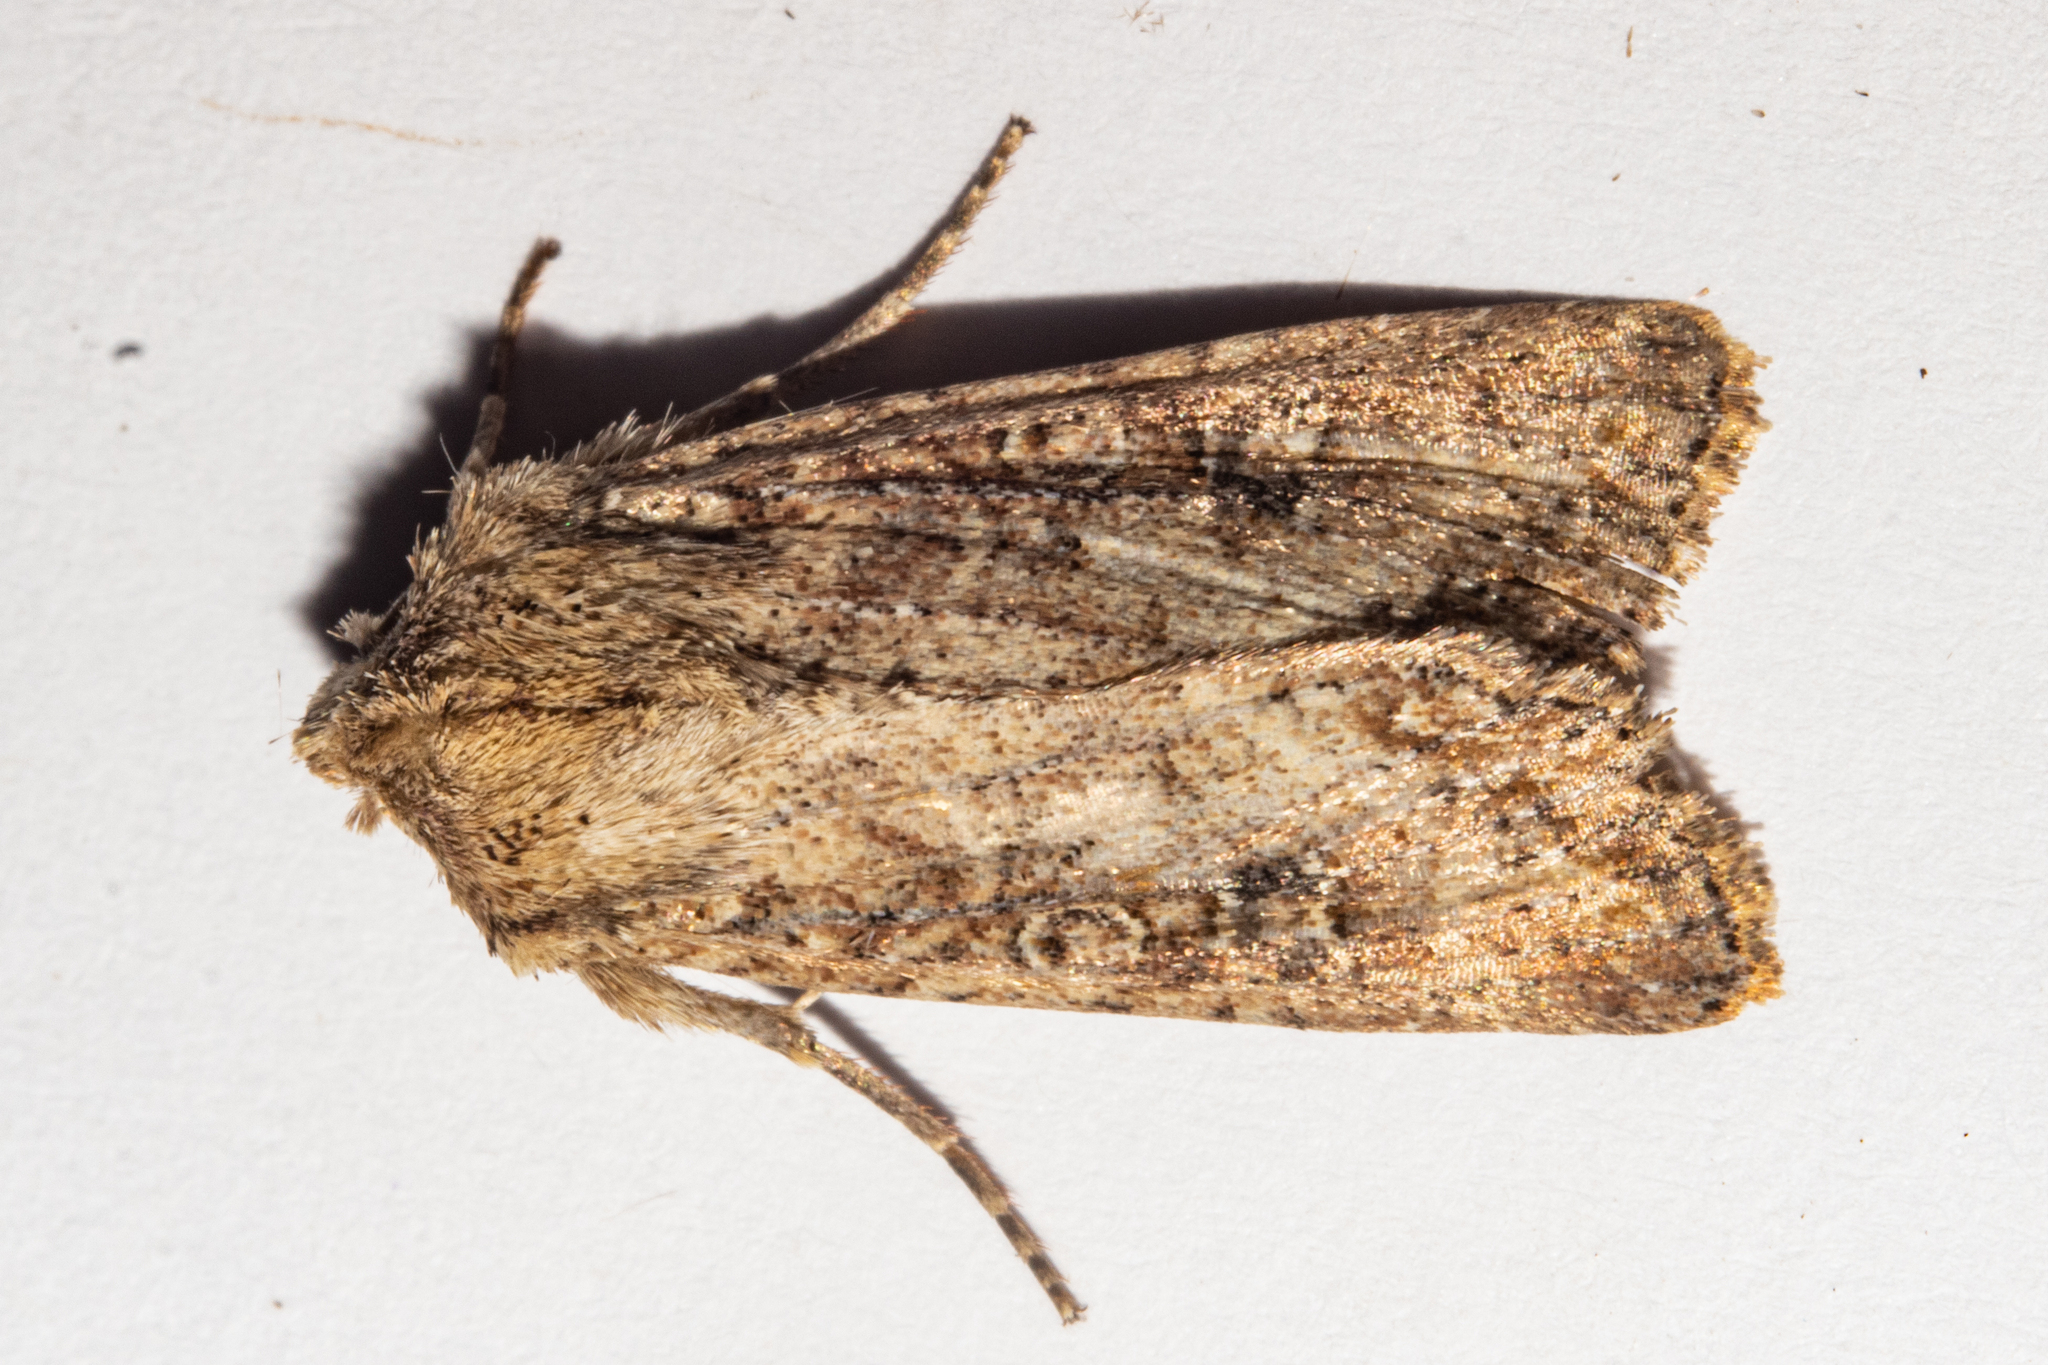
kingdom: Animalia
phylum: Arthropoda
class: Insecta
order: Lepidoptera
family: Noctuidae
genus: Ichneutica
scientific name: Ichneutica morosa
